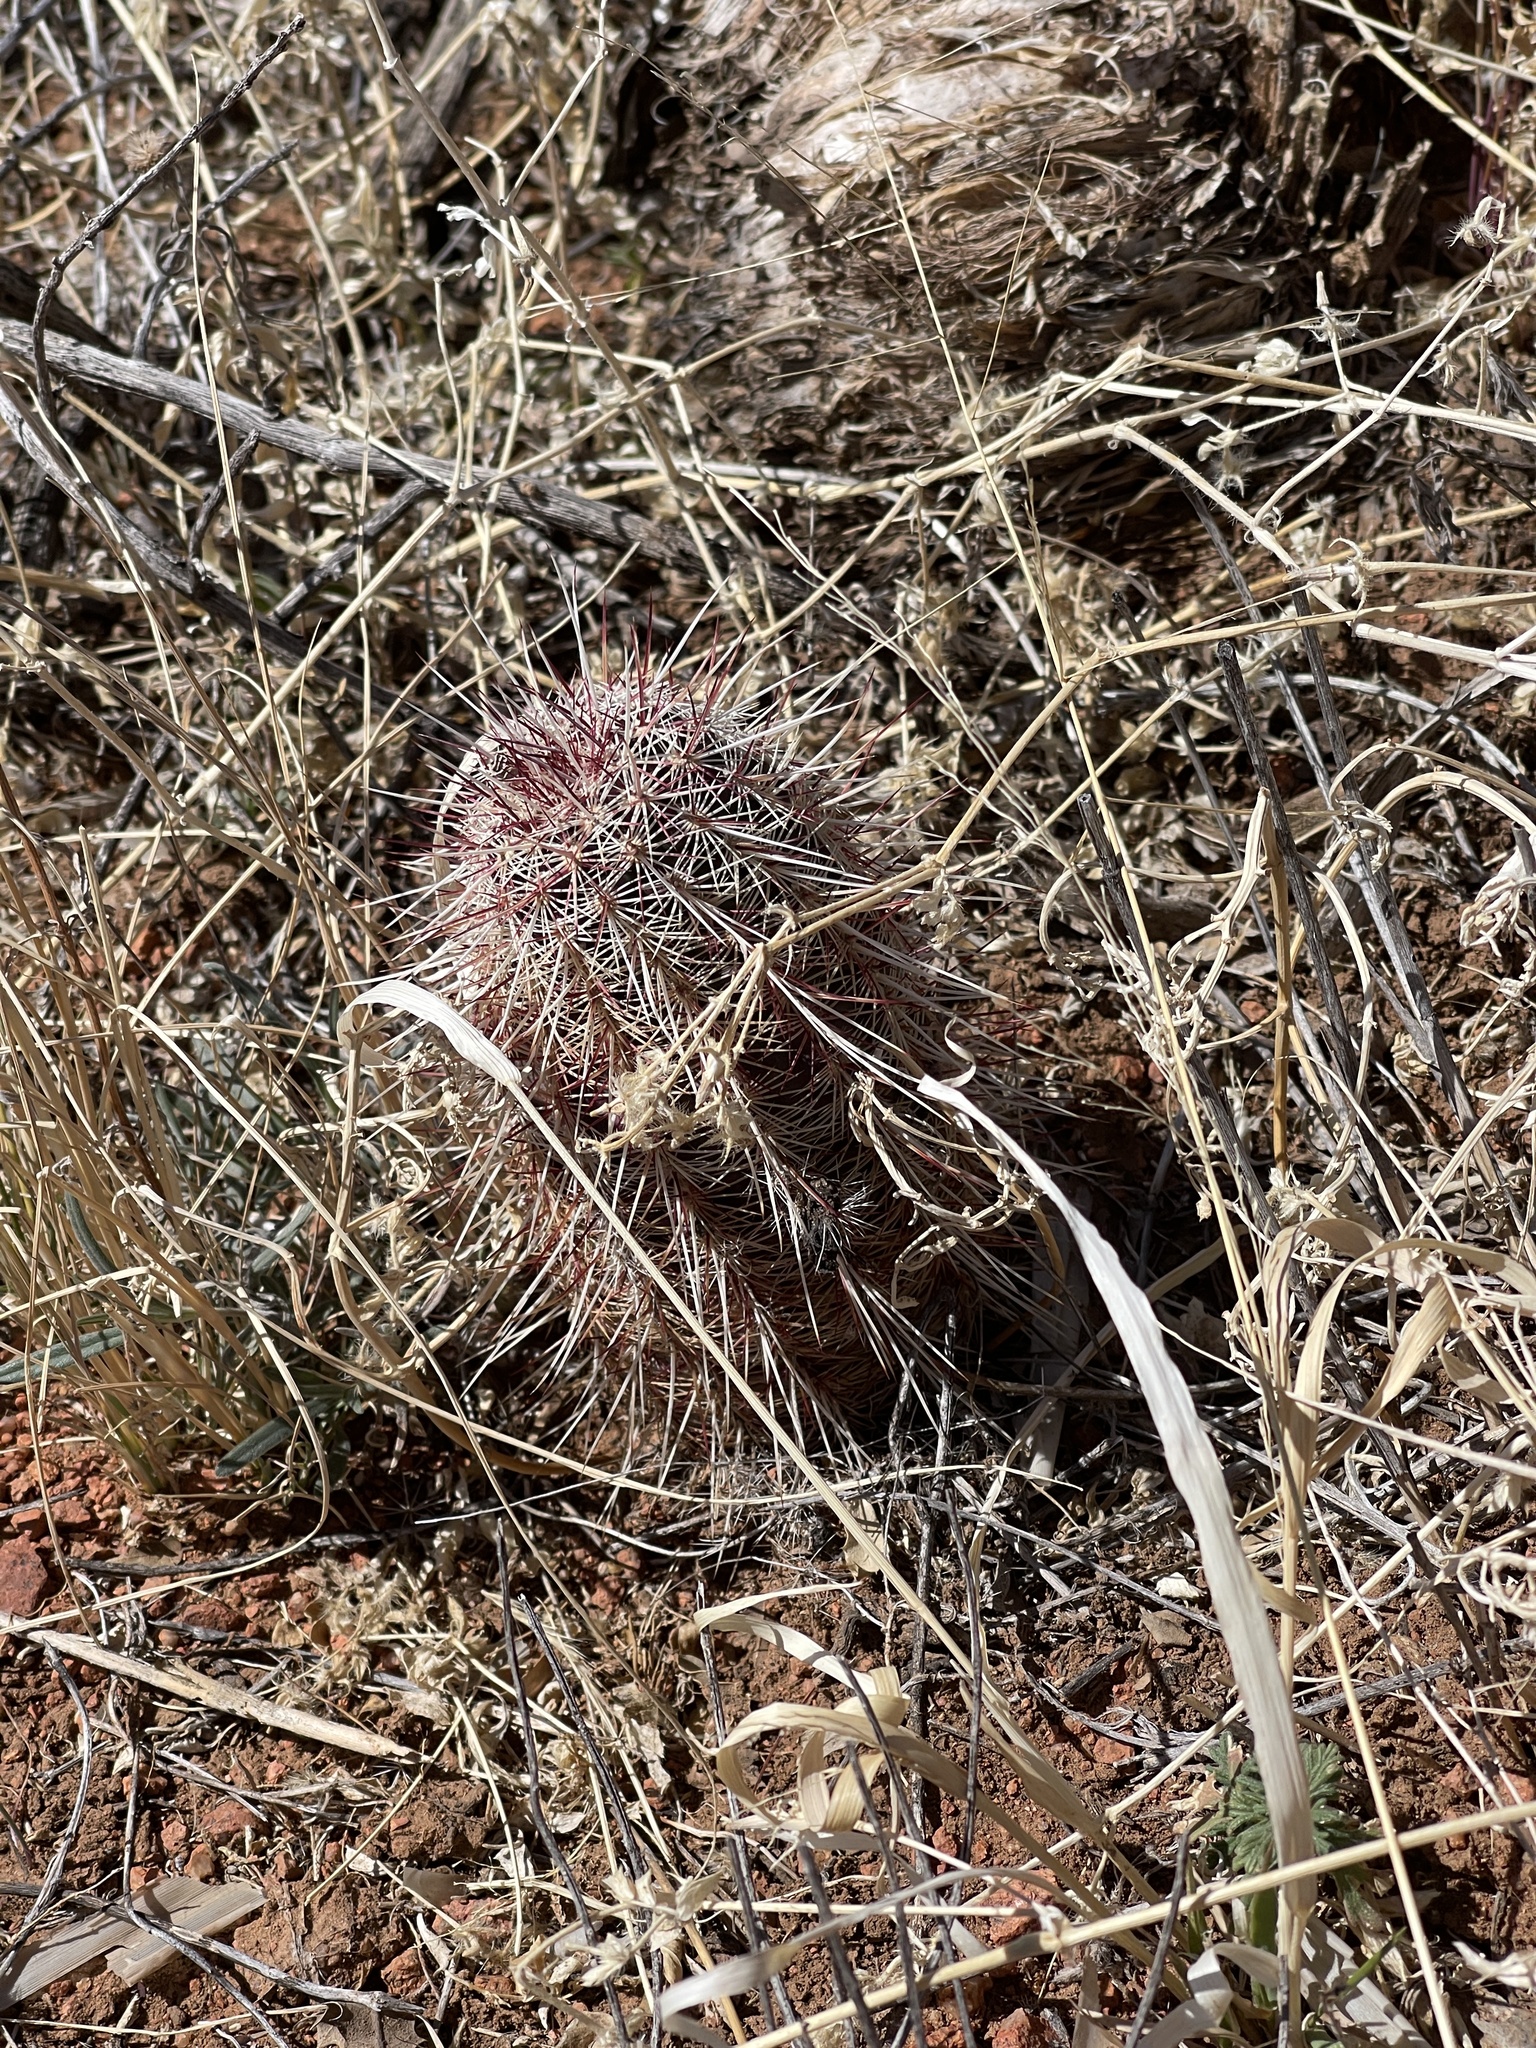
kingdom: Plantae
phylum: Tracheophyta
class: Magnoliopsida
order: Caryophyllales
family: Cactaceae
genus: Echinocereus
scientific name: Echinocereus viridiflorus
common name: Nylon hedgehog cactus
